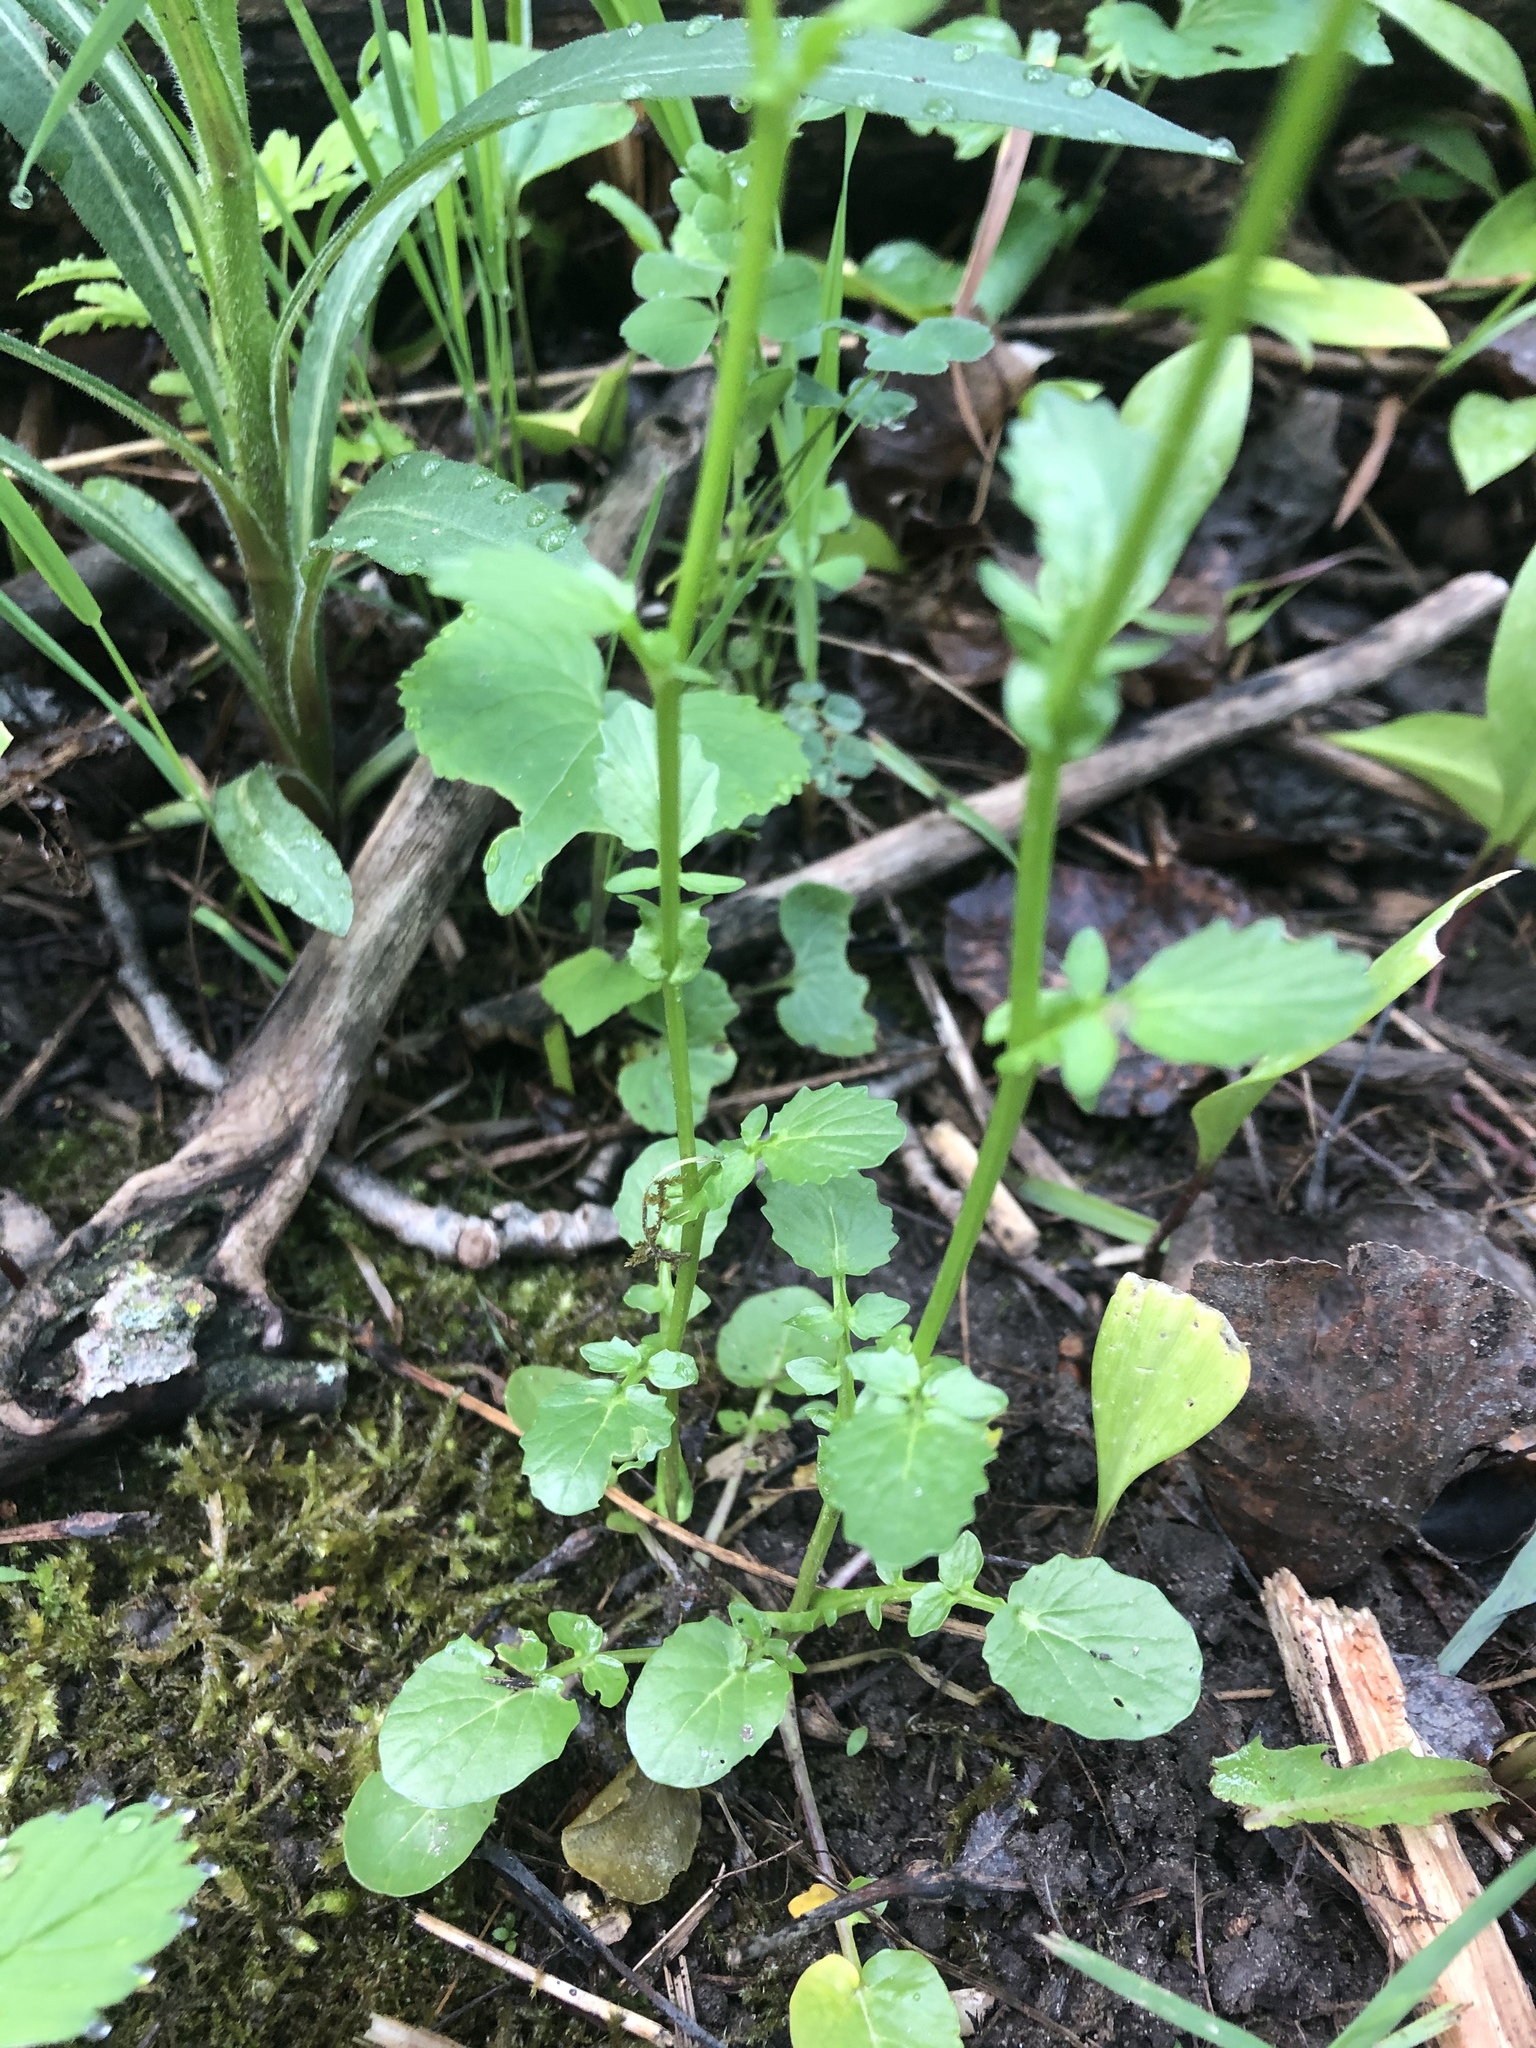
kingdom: Plantae
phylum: Tracheophyta
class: Magnoliopsida
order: Brassicales
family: Brassicaceae
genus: Barbarea
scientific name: Barbarea vulgaris
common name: Cressy-greens
